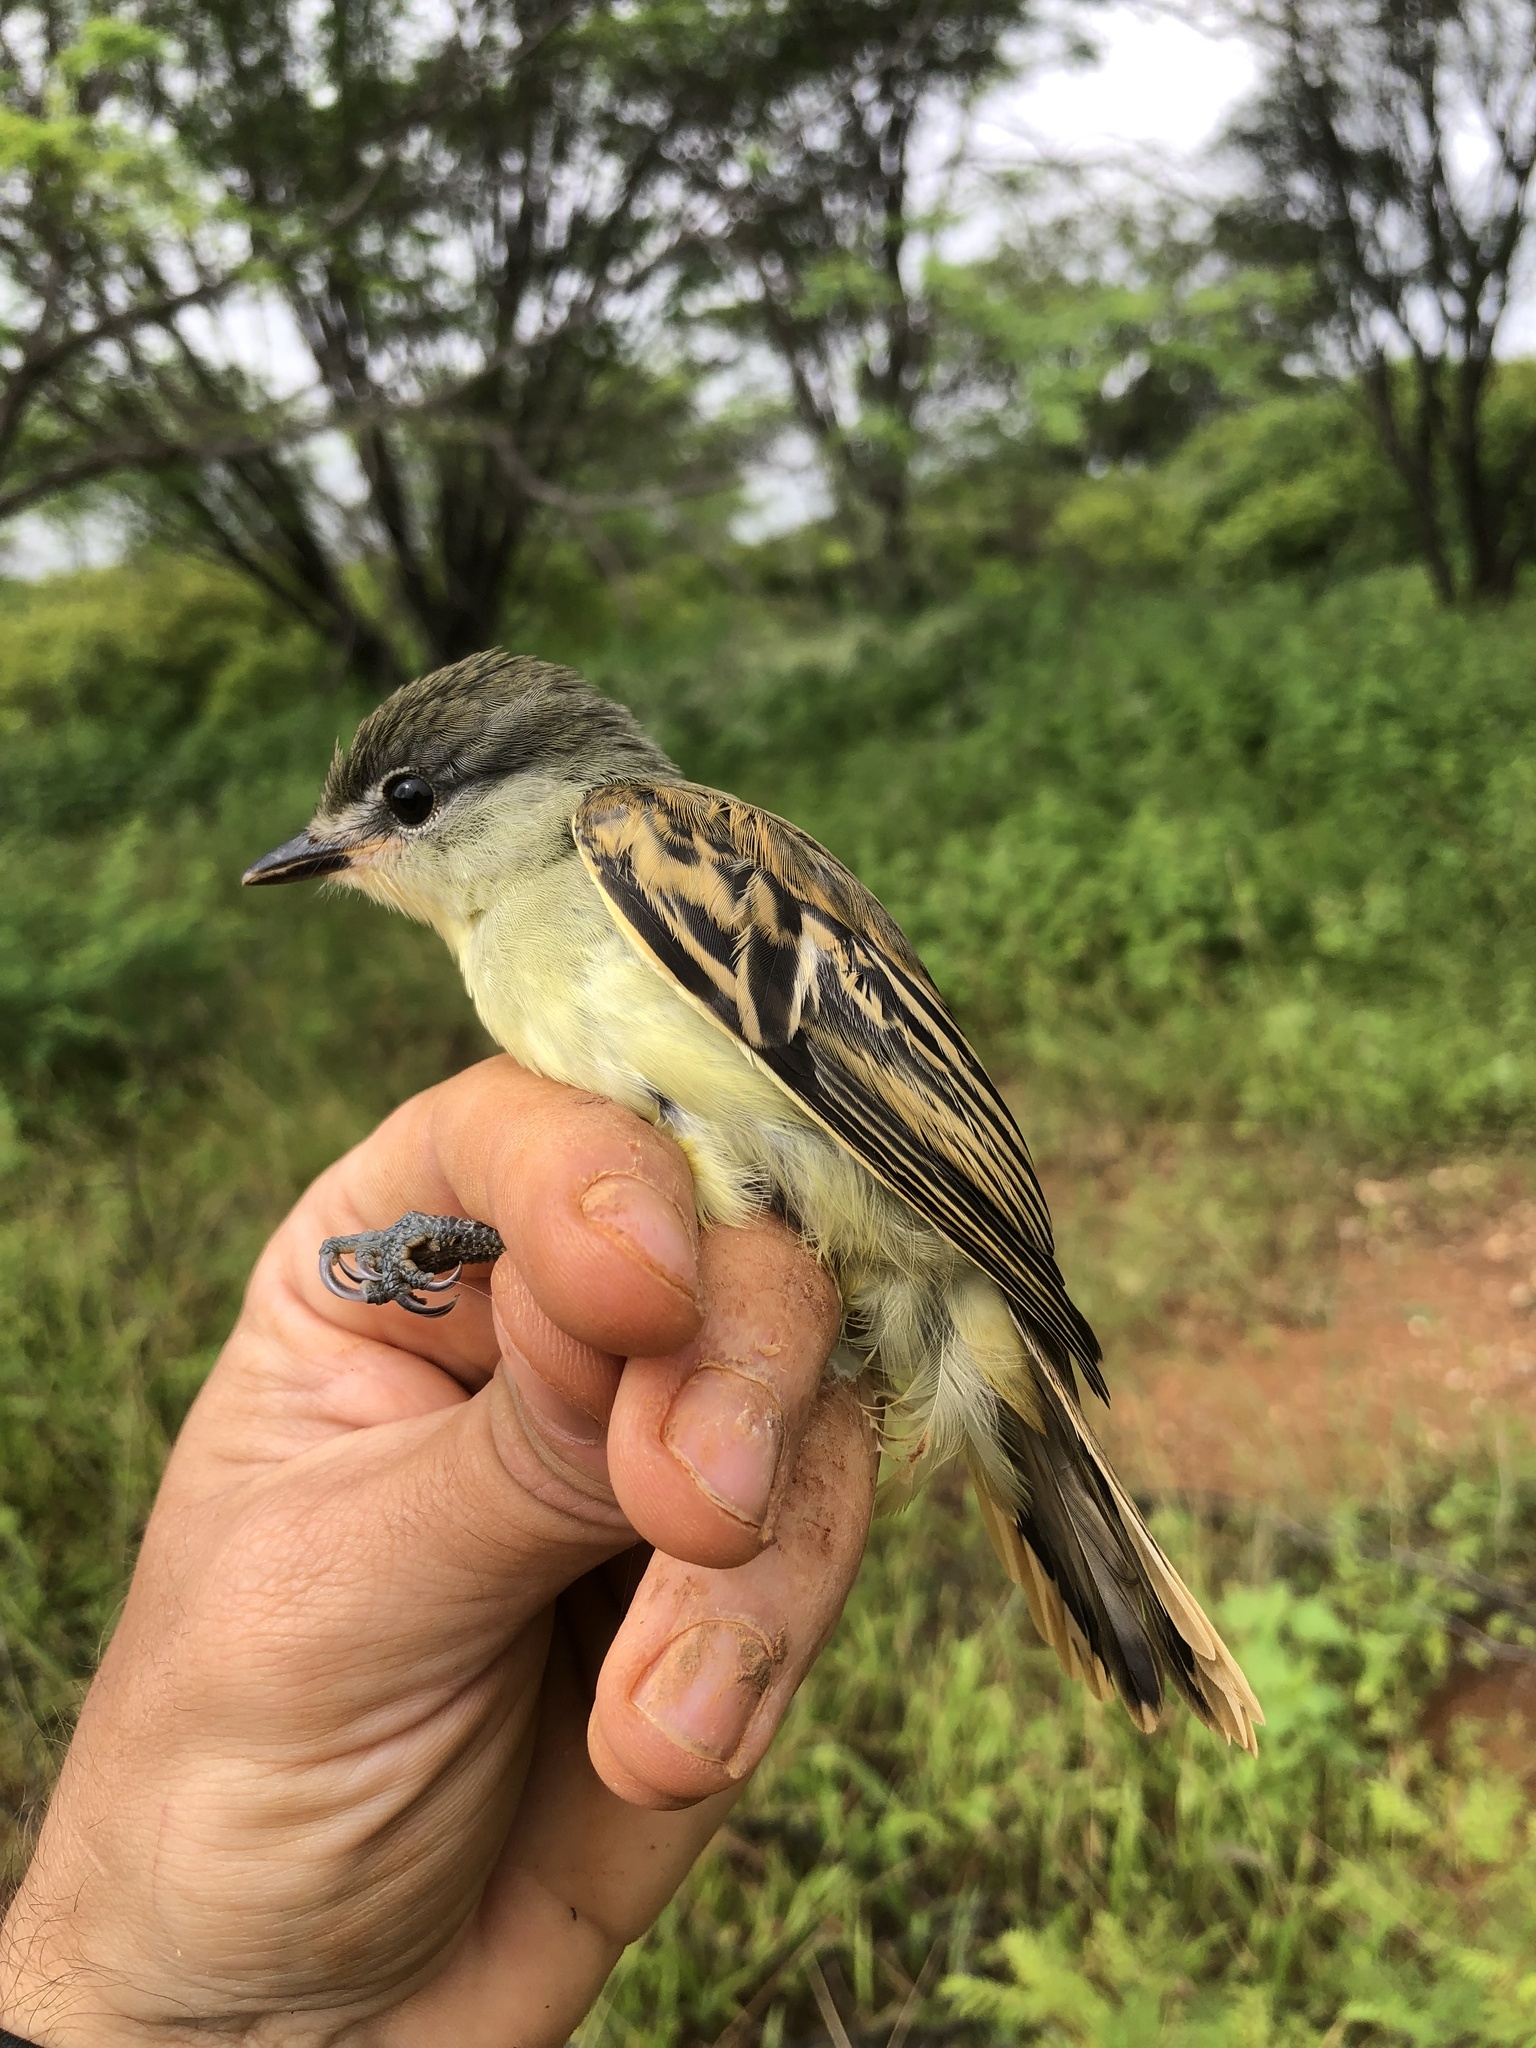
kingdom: Animalia
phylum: Chordata
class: Aves
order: Passeriformes
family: Cotingidae
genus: Pachyramphus
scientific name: Pachyramphus polychopterus
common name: White-winged becard
